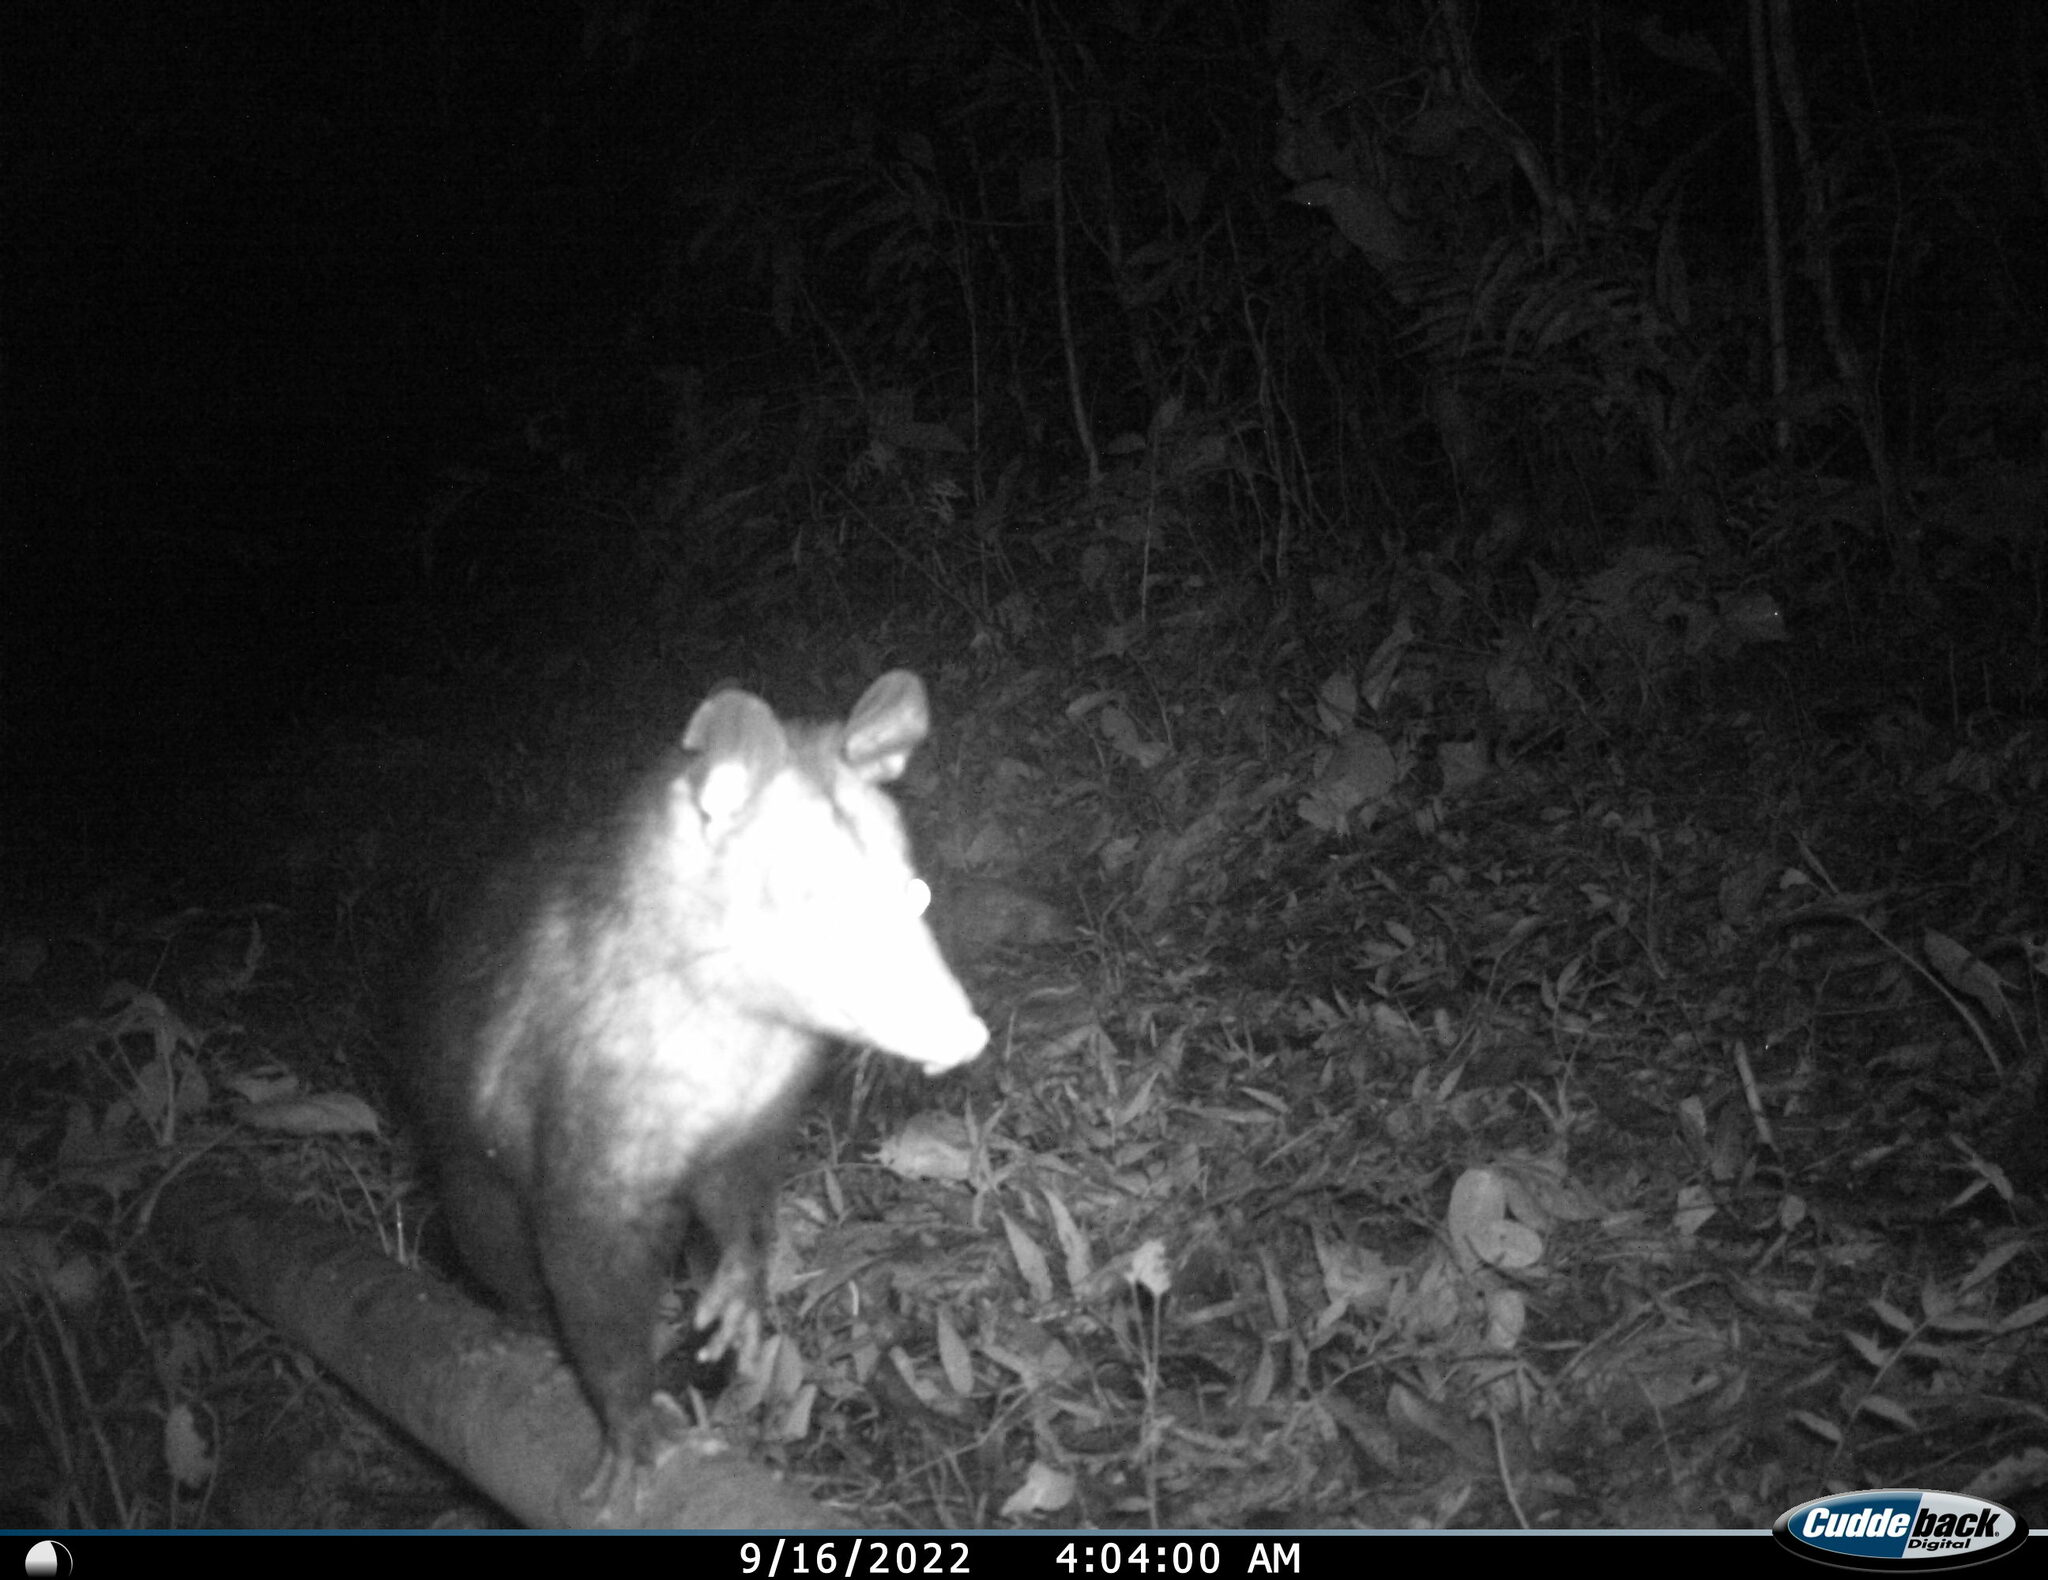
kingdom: Animalia
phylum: Chordata
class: Mammalia
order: Didelphimorphia
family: Didelphidae
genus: Didelphis
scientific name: Didelphis
